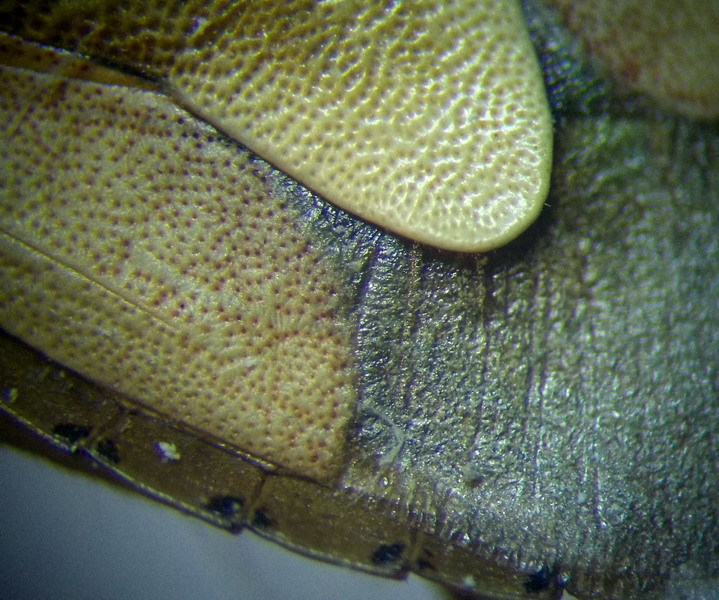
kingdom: Animalia
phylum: Arthropoda
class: Insecta
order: Hemiptera
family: Pentatomidae
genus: Antheminia
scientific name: Antheminia lunulata
